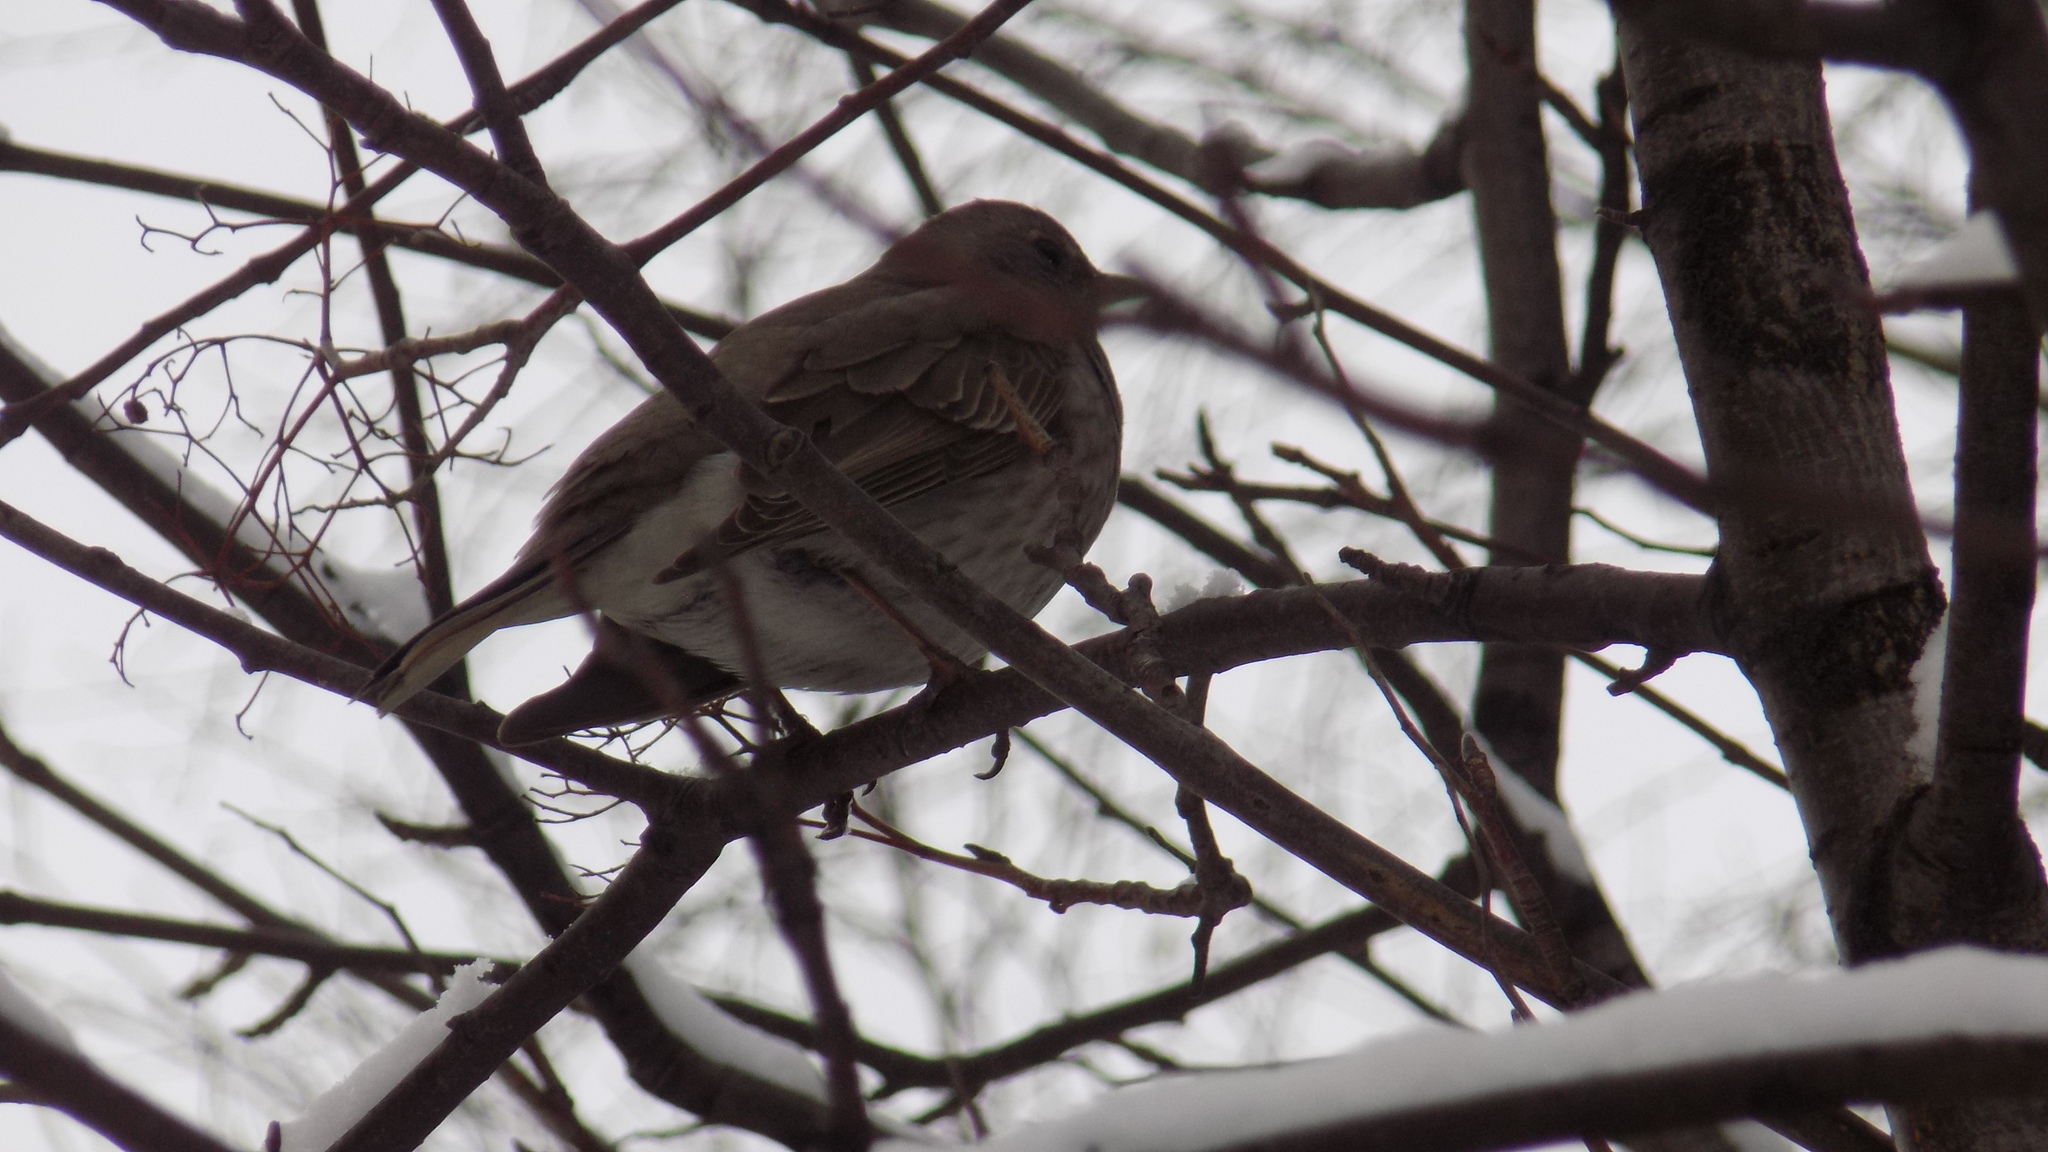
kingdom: Animalia
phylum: Chordata
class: Aves
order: Passeriformes
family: Turdidae
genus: Turdus
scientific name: Turdus atrogularis
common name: Black-throated thrush
